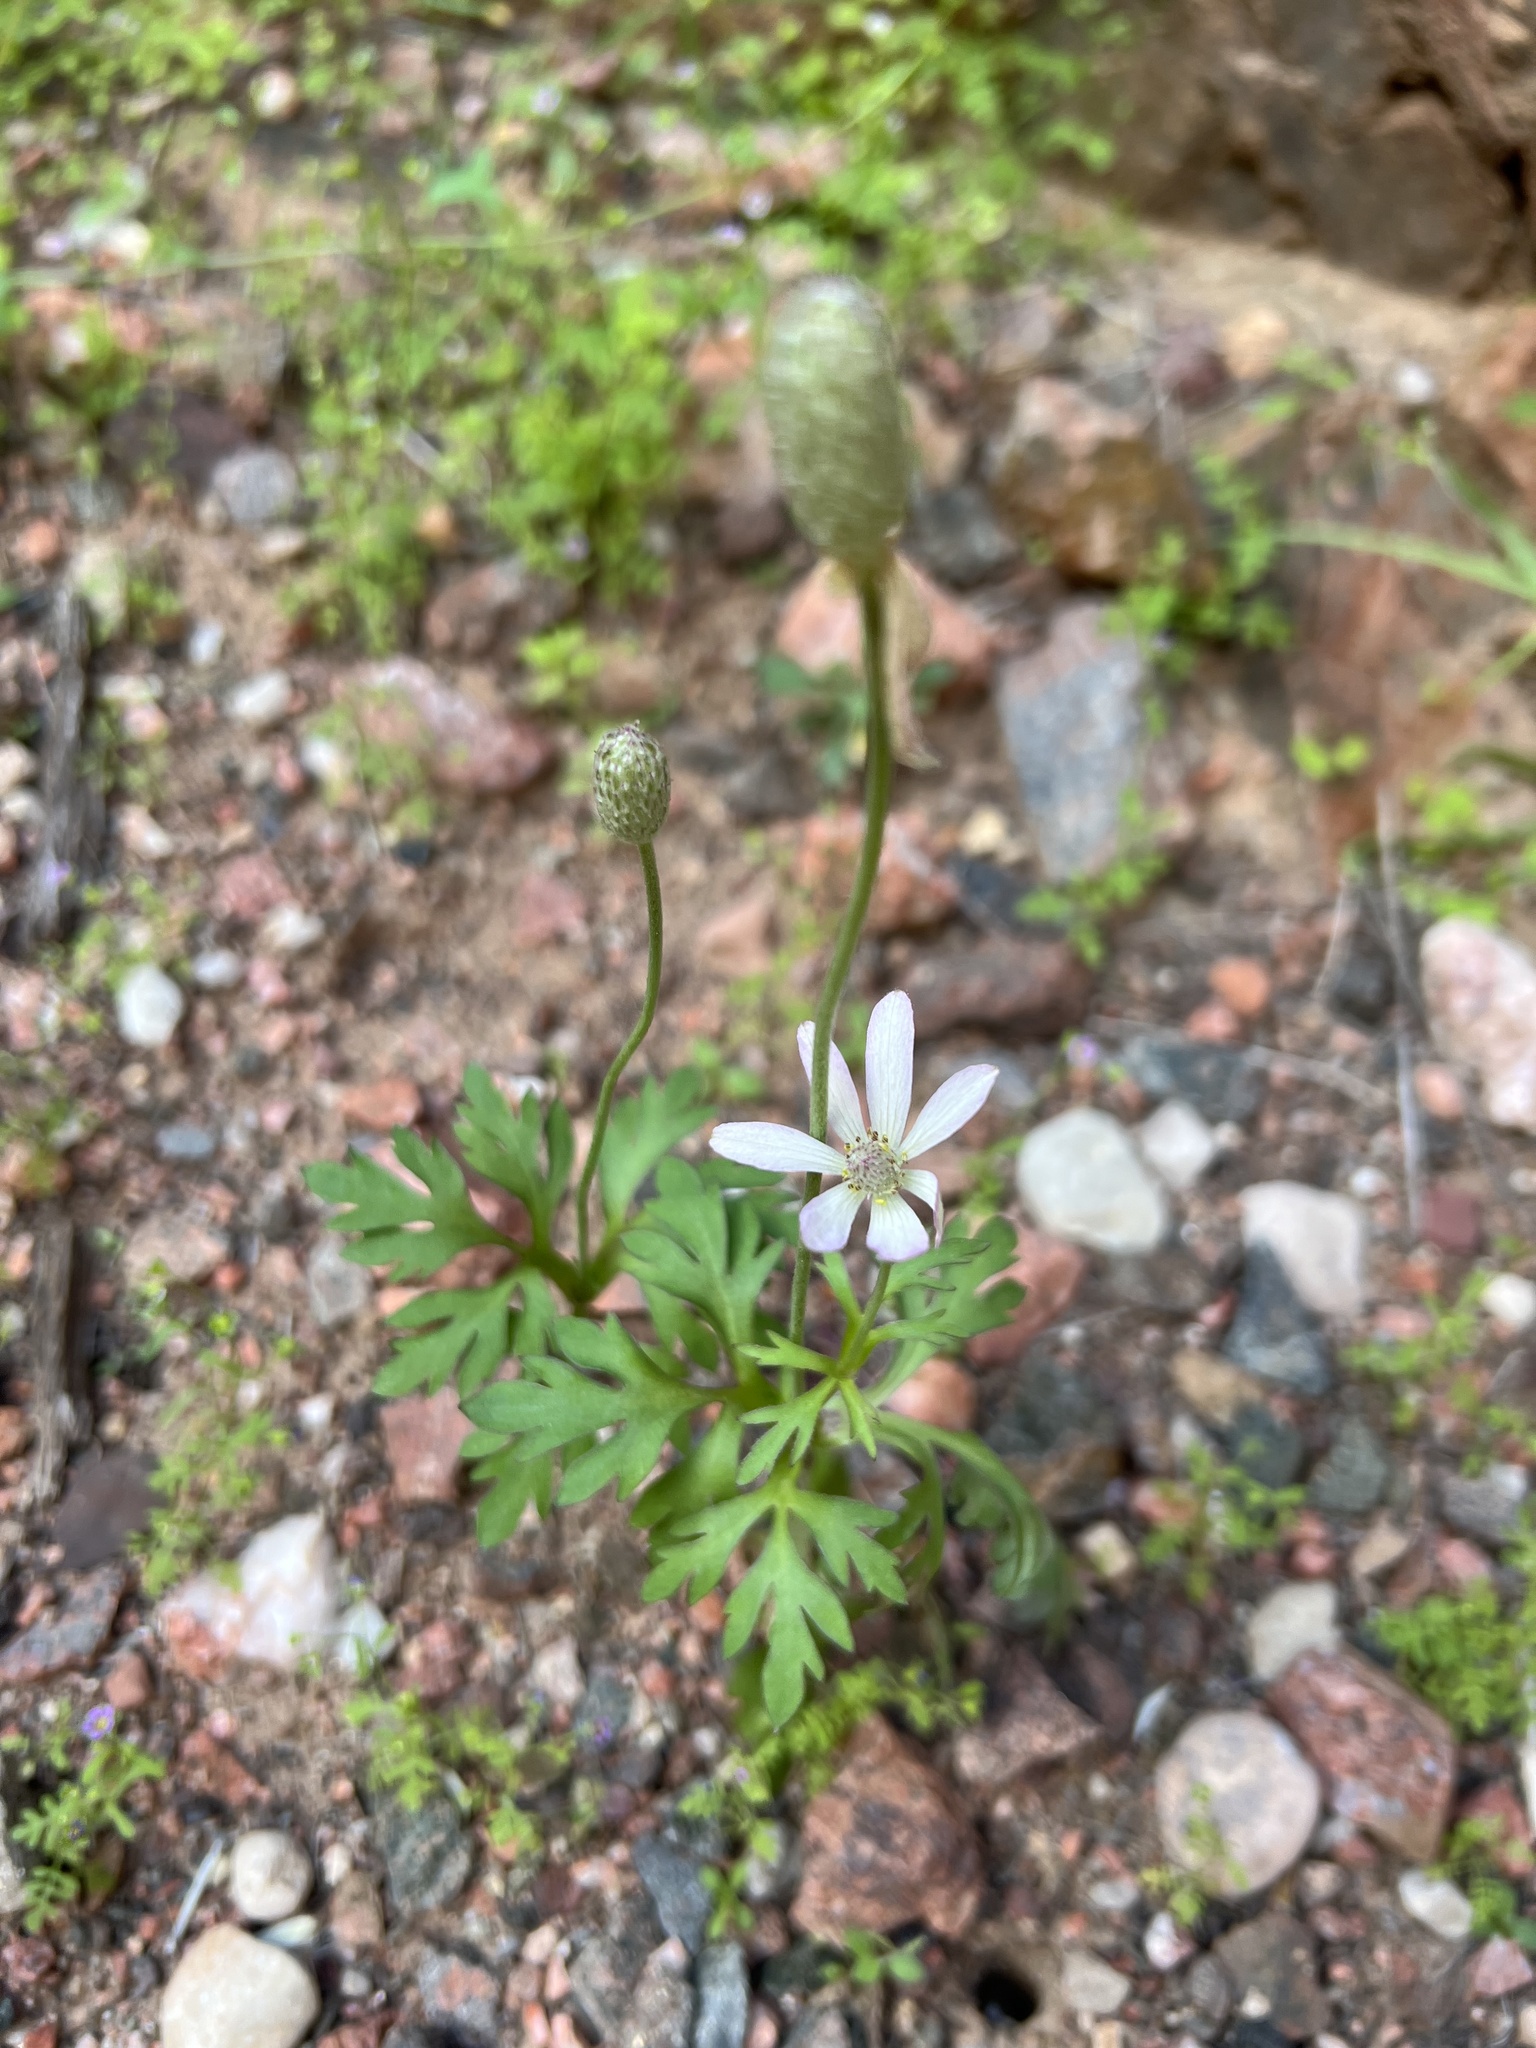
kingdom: Plantae
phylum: Tracheophyta
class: Magnoliopsida
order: Ranunculales
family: Ranunculaceae
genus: Anemone
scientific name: Anemone tuberosa
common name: Desert anemone
